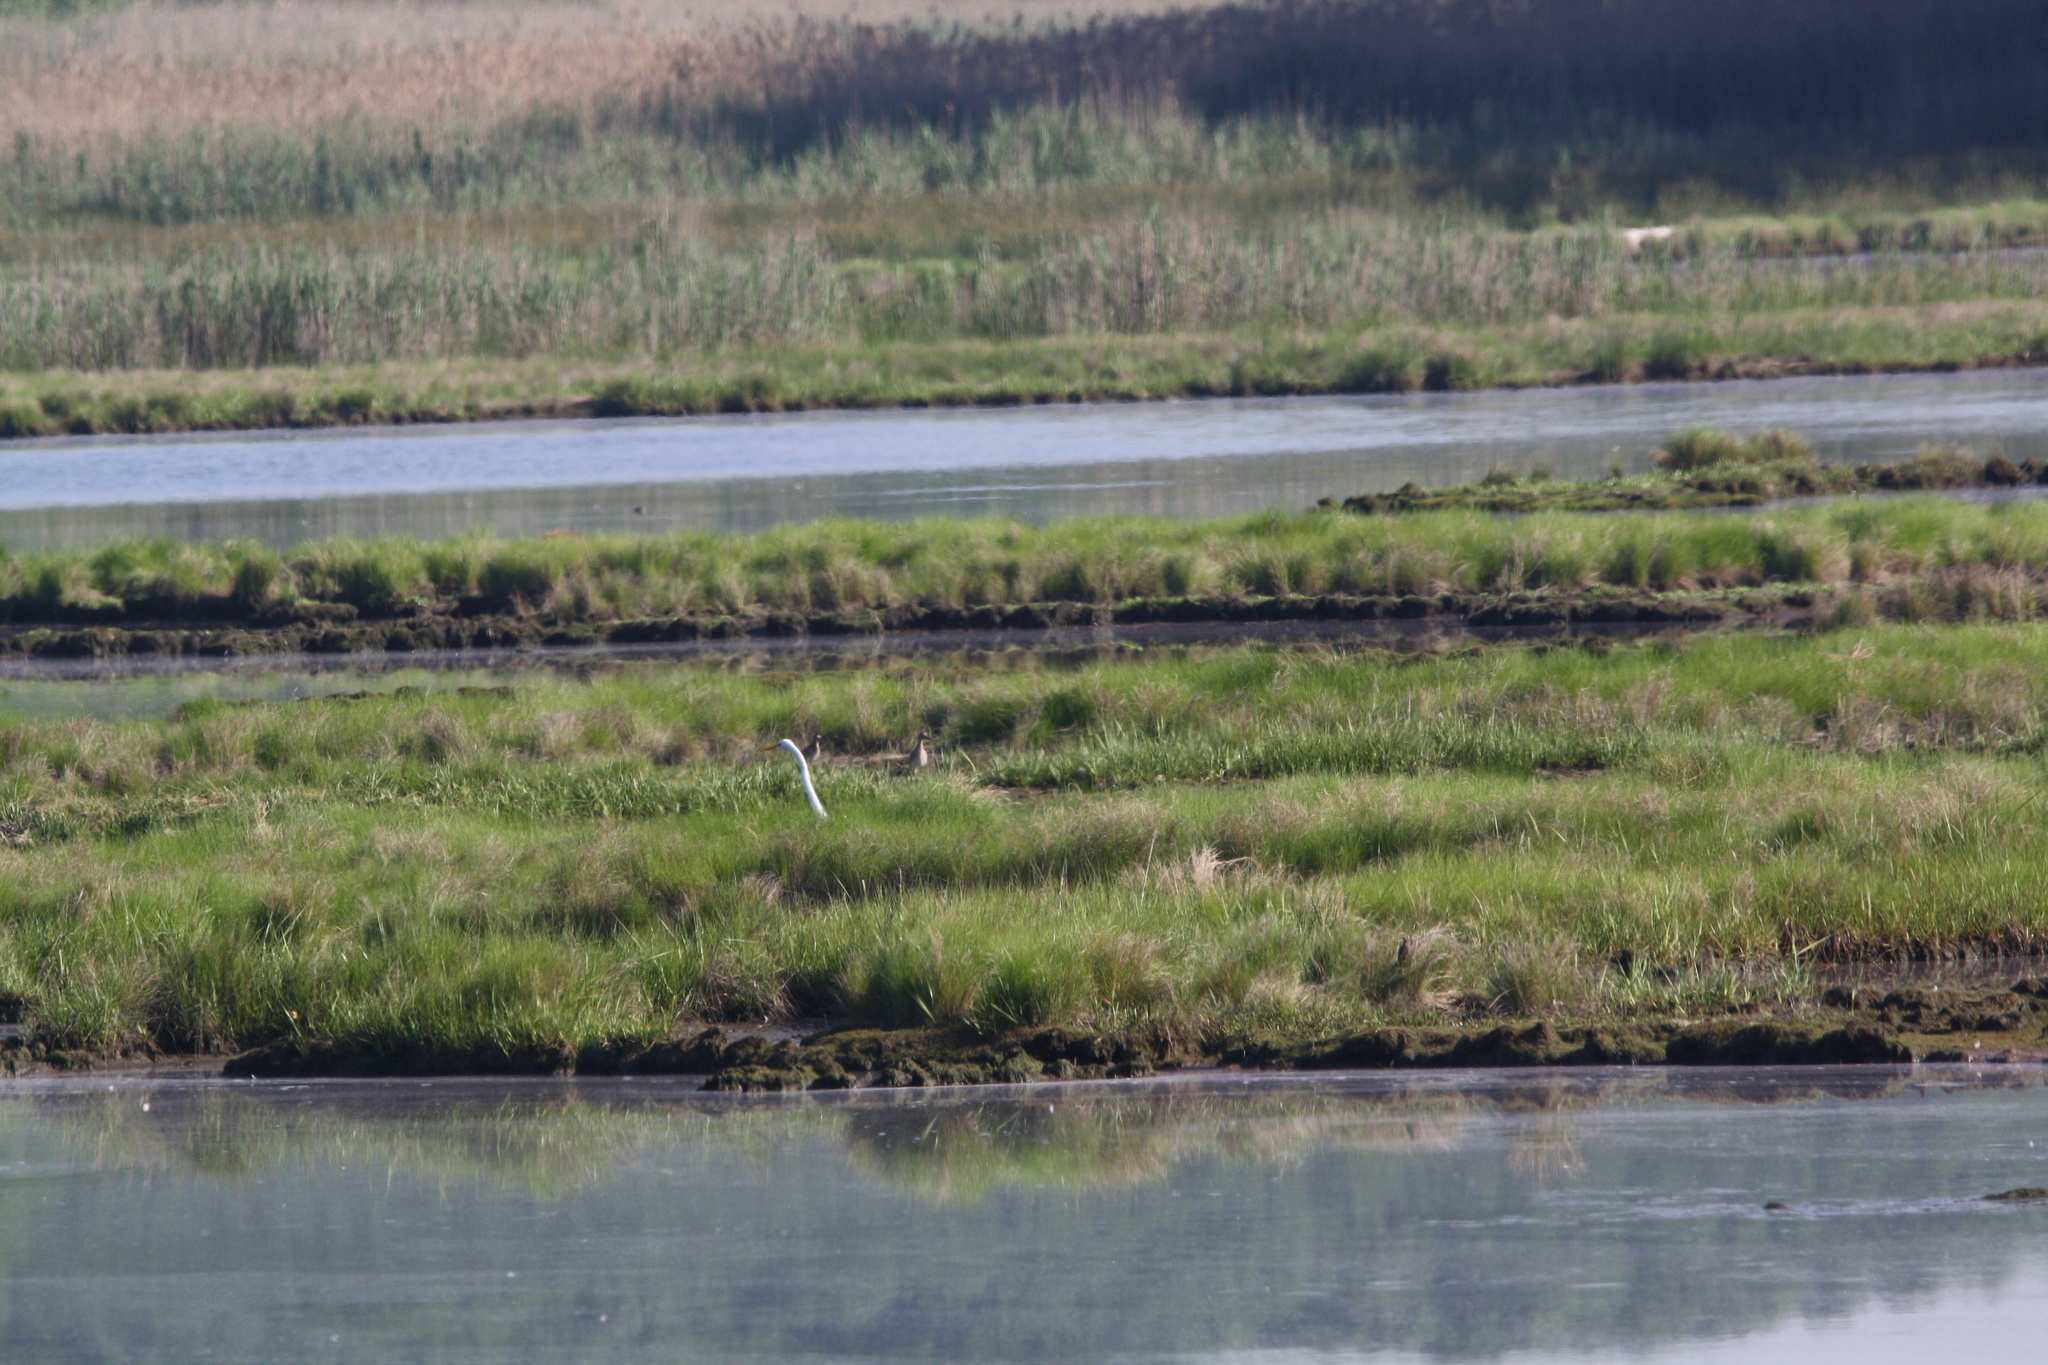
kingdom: Animalia
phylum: Chordata
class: Aves
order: Charadriiformes
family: Scolopacidae
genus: Tringa
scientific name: Tringa semipalmata
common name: Willet
